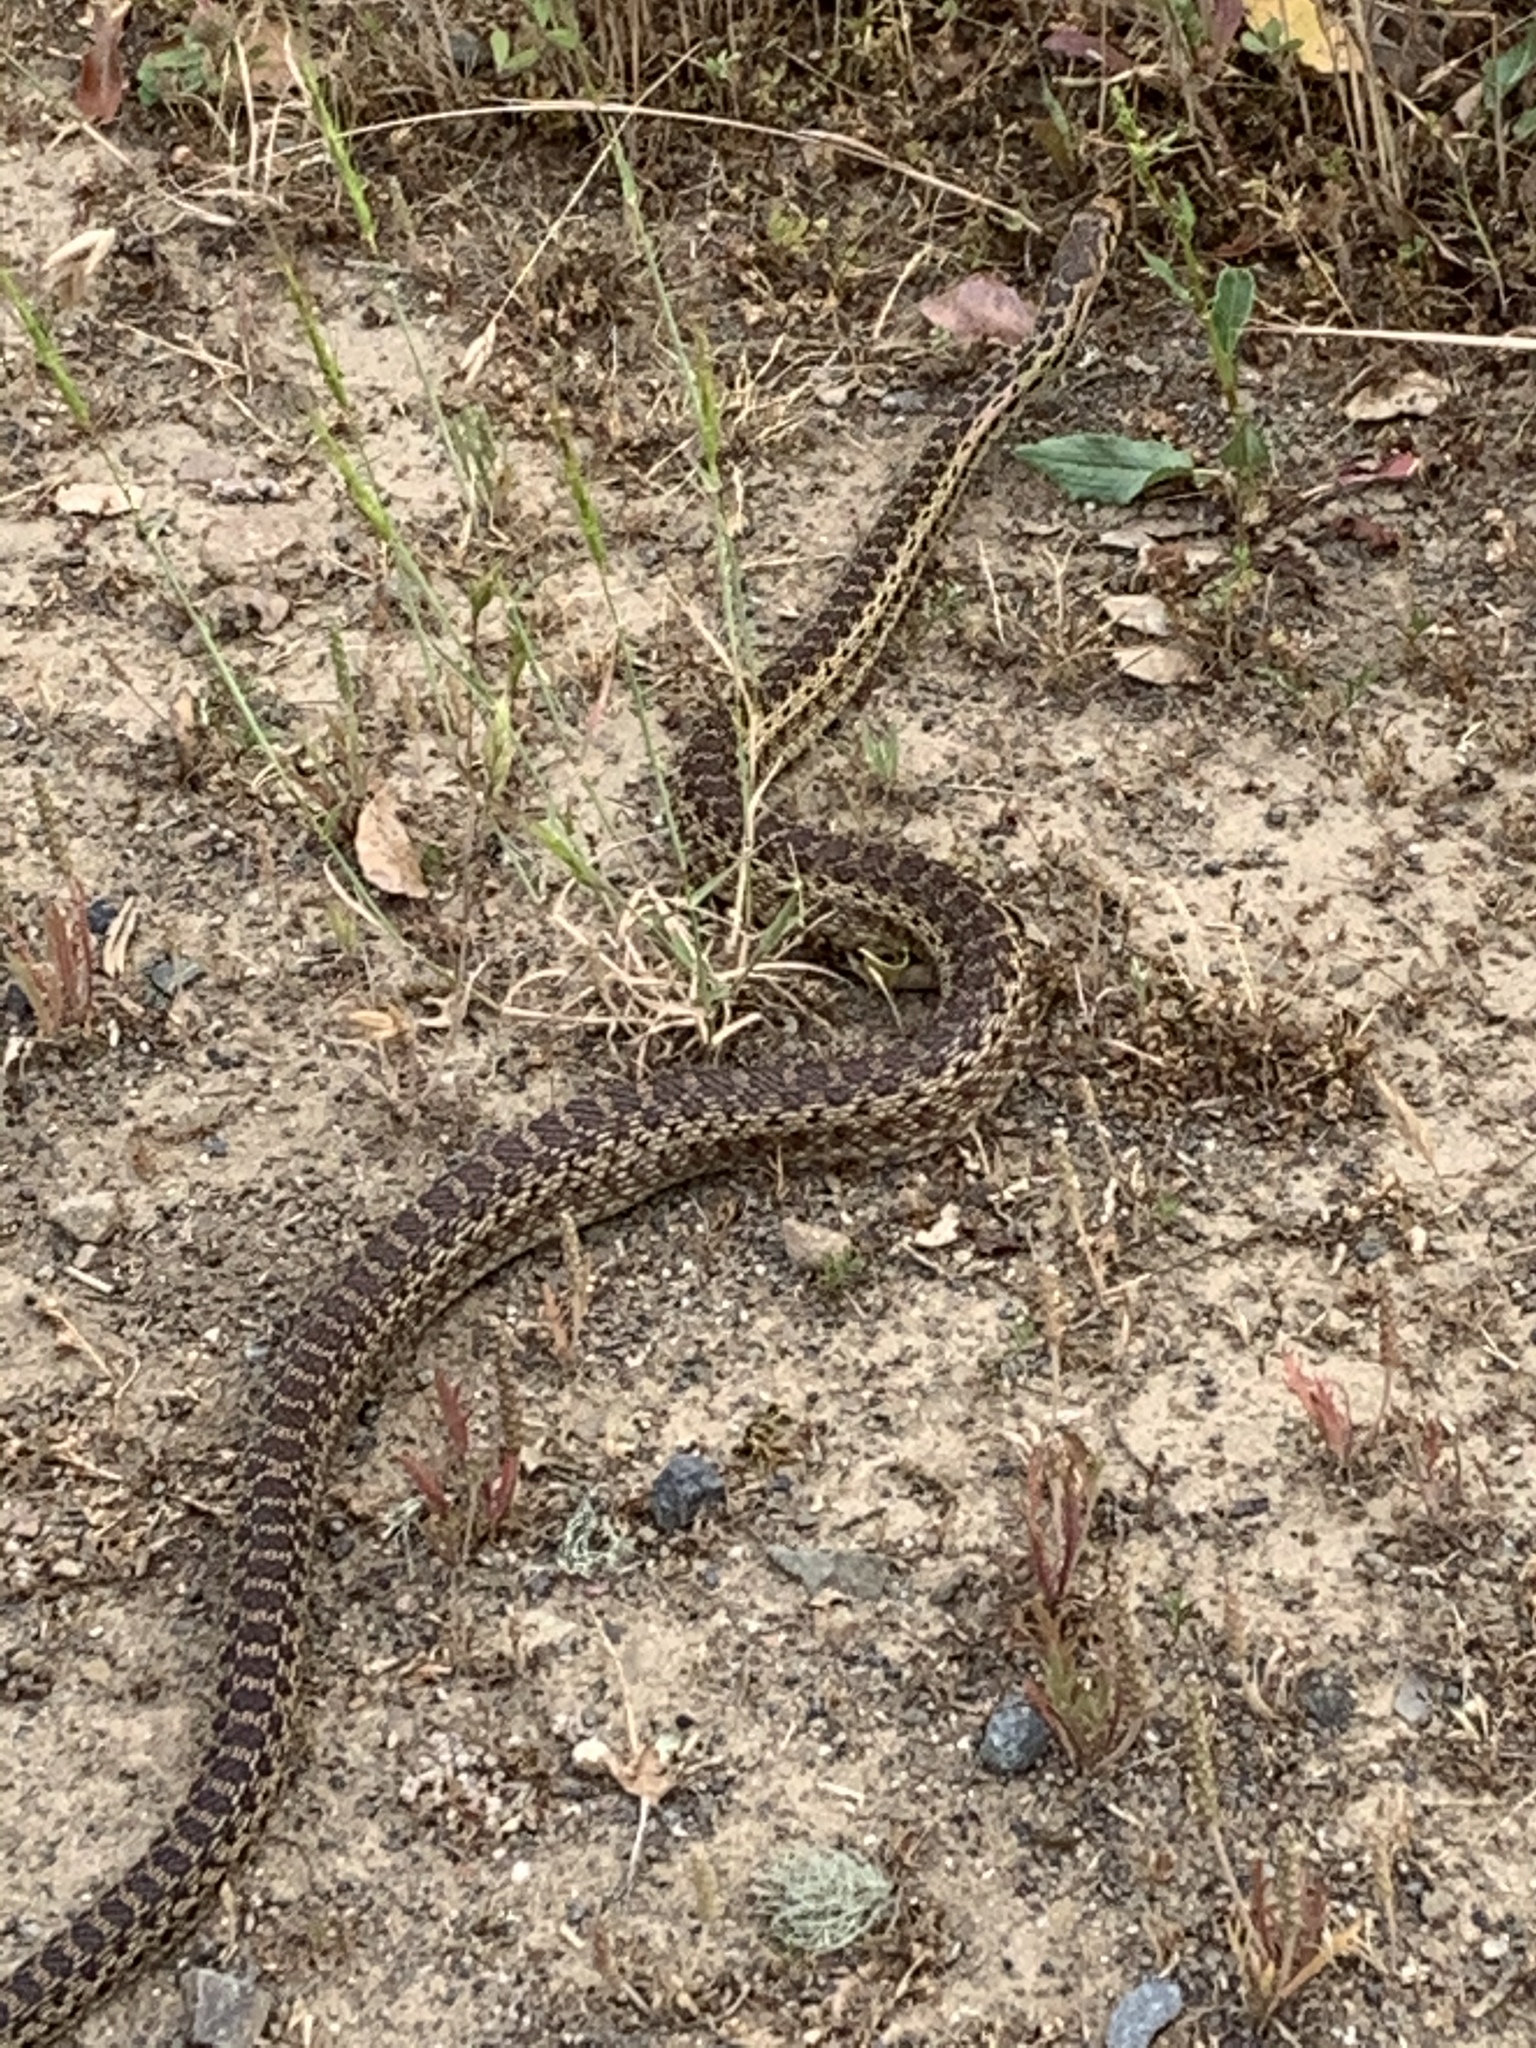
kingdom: Animalia
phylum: Chordata
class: Squamata
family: Colubridae
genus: Pituophis
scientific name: Pituophis catenifer
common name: Gopher snake
